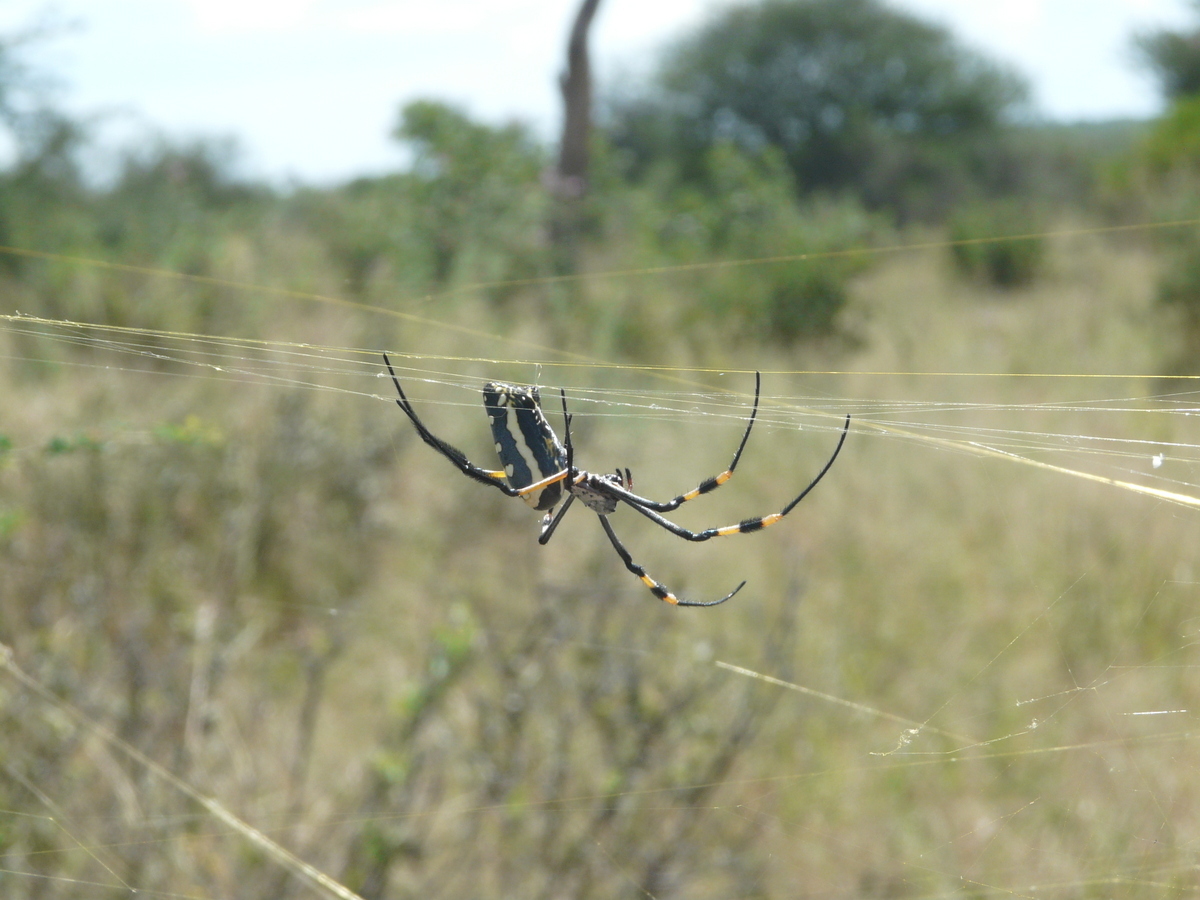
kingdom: Animalia
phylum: Arthropoda
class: Arachnida
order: Araneae
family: Araneidae
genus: Trichonephila
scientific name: Trichonephila senegalensis
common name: Banded golden orb weaver
